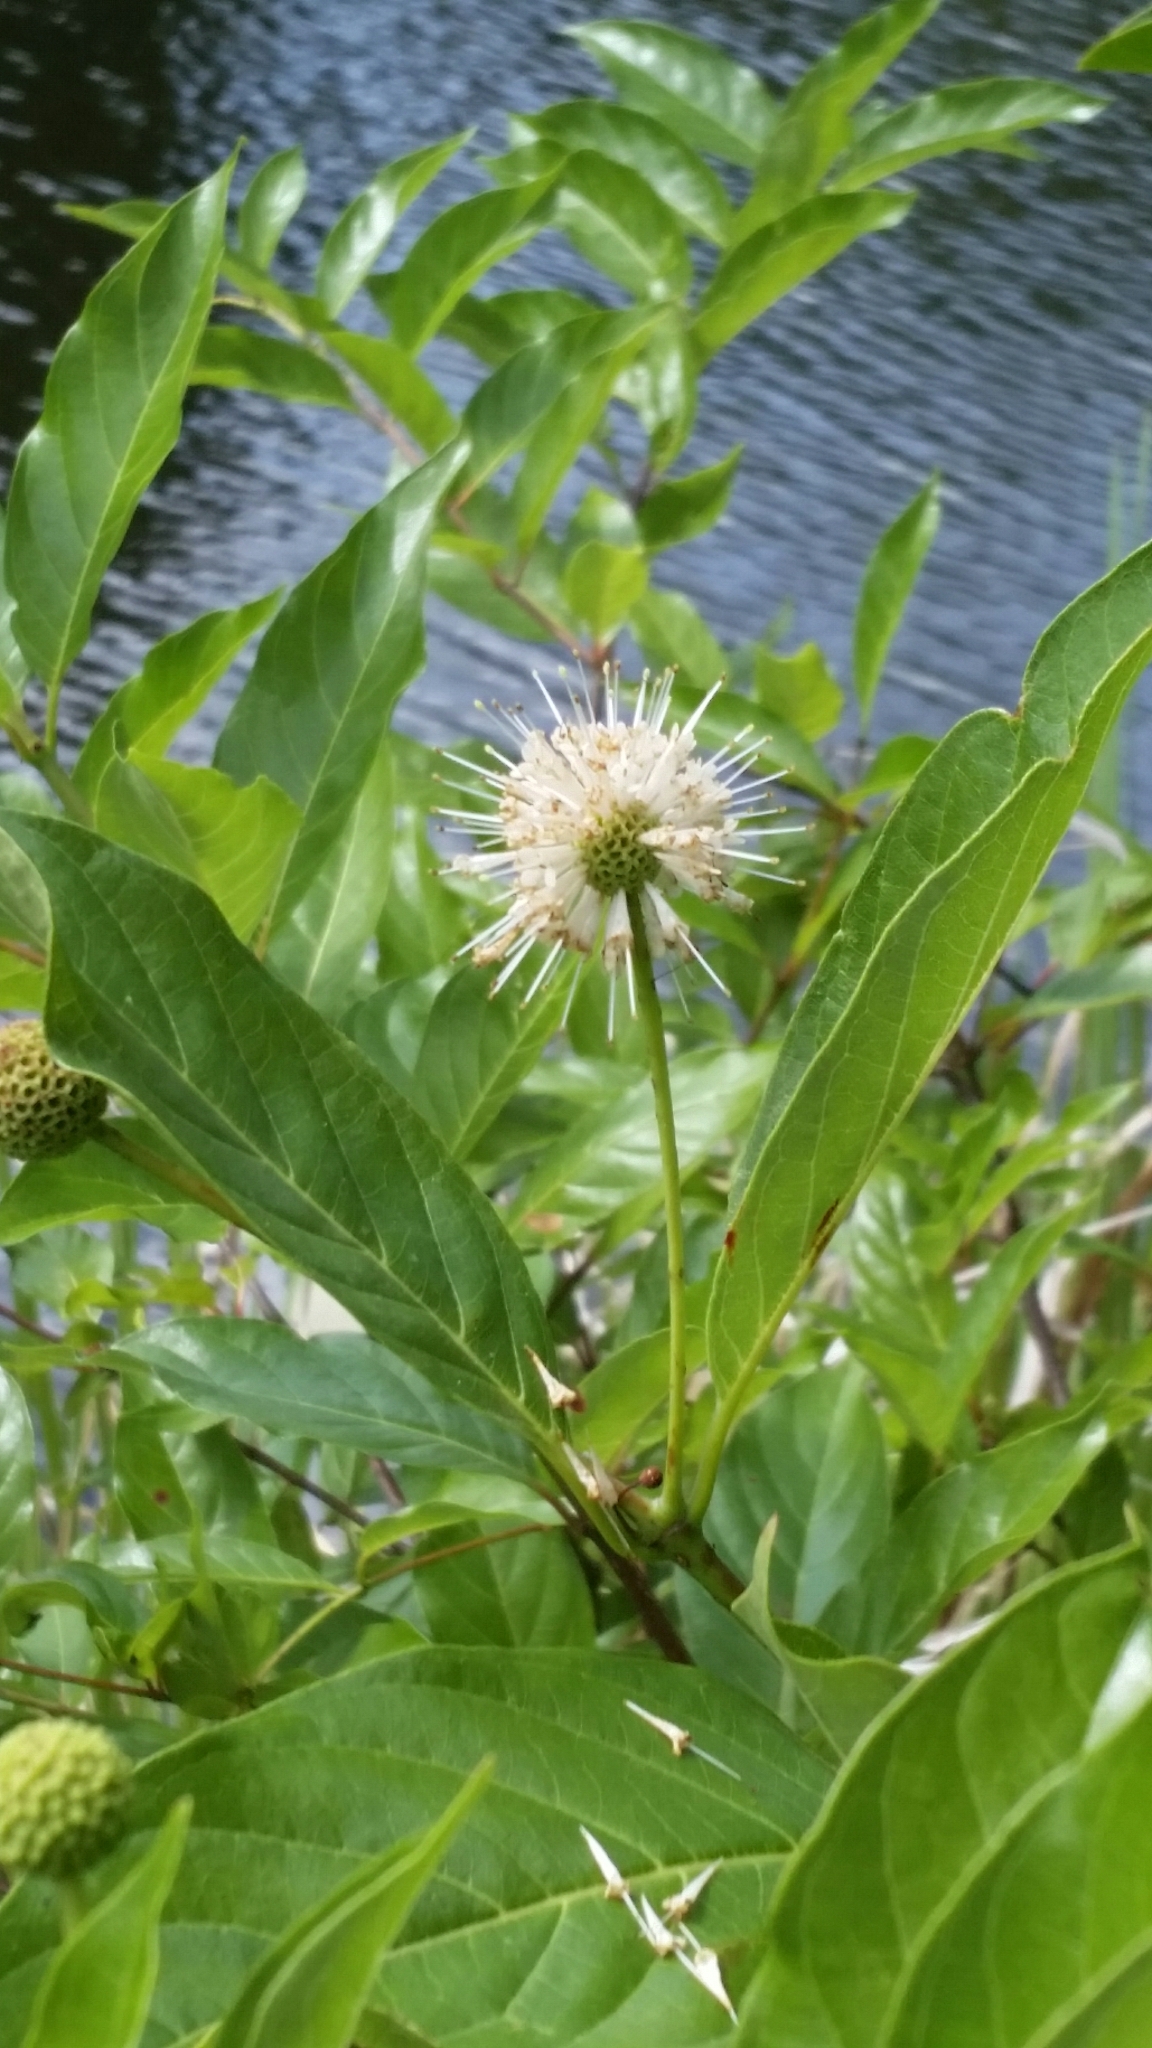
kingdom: Plantae
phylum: Tracheophyta
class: Magnoliopsida
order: Gentianales
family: Rubiaceae
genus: Cephalanthus
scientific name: Cephalanthus occidentalis
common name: Button-willow
